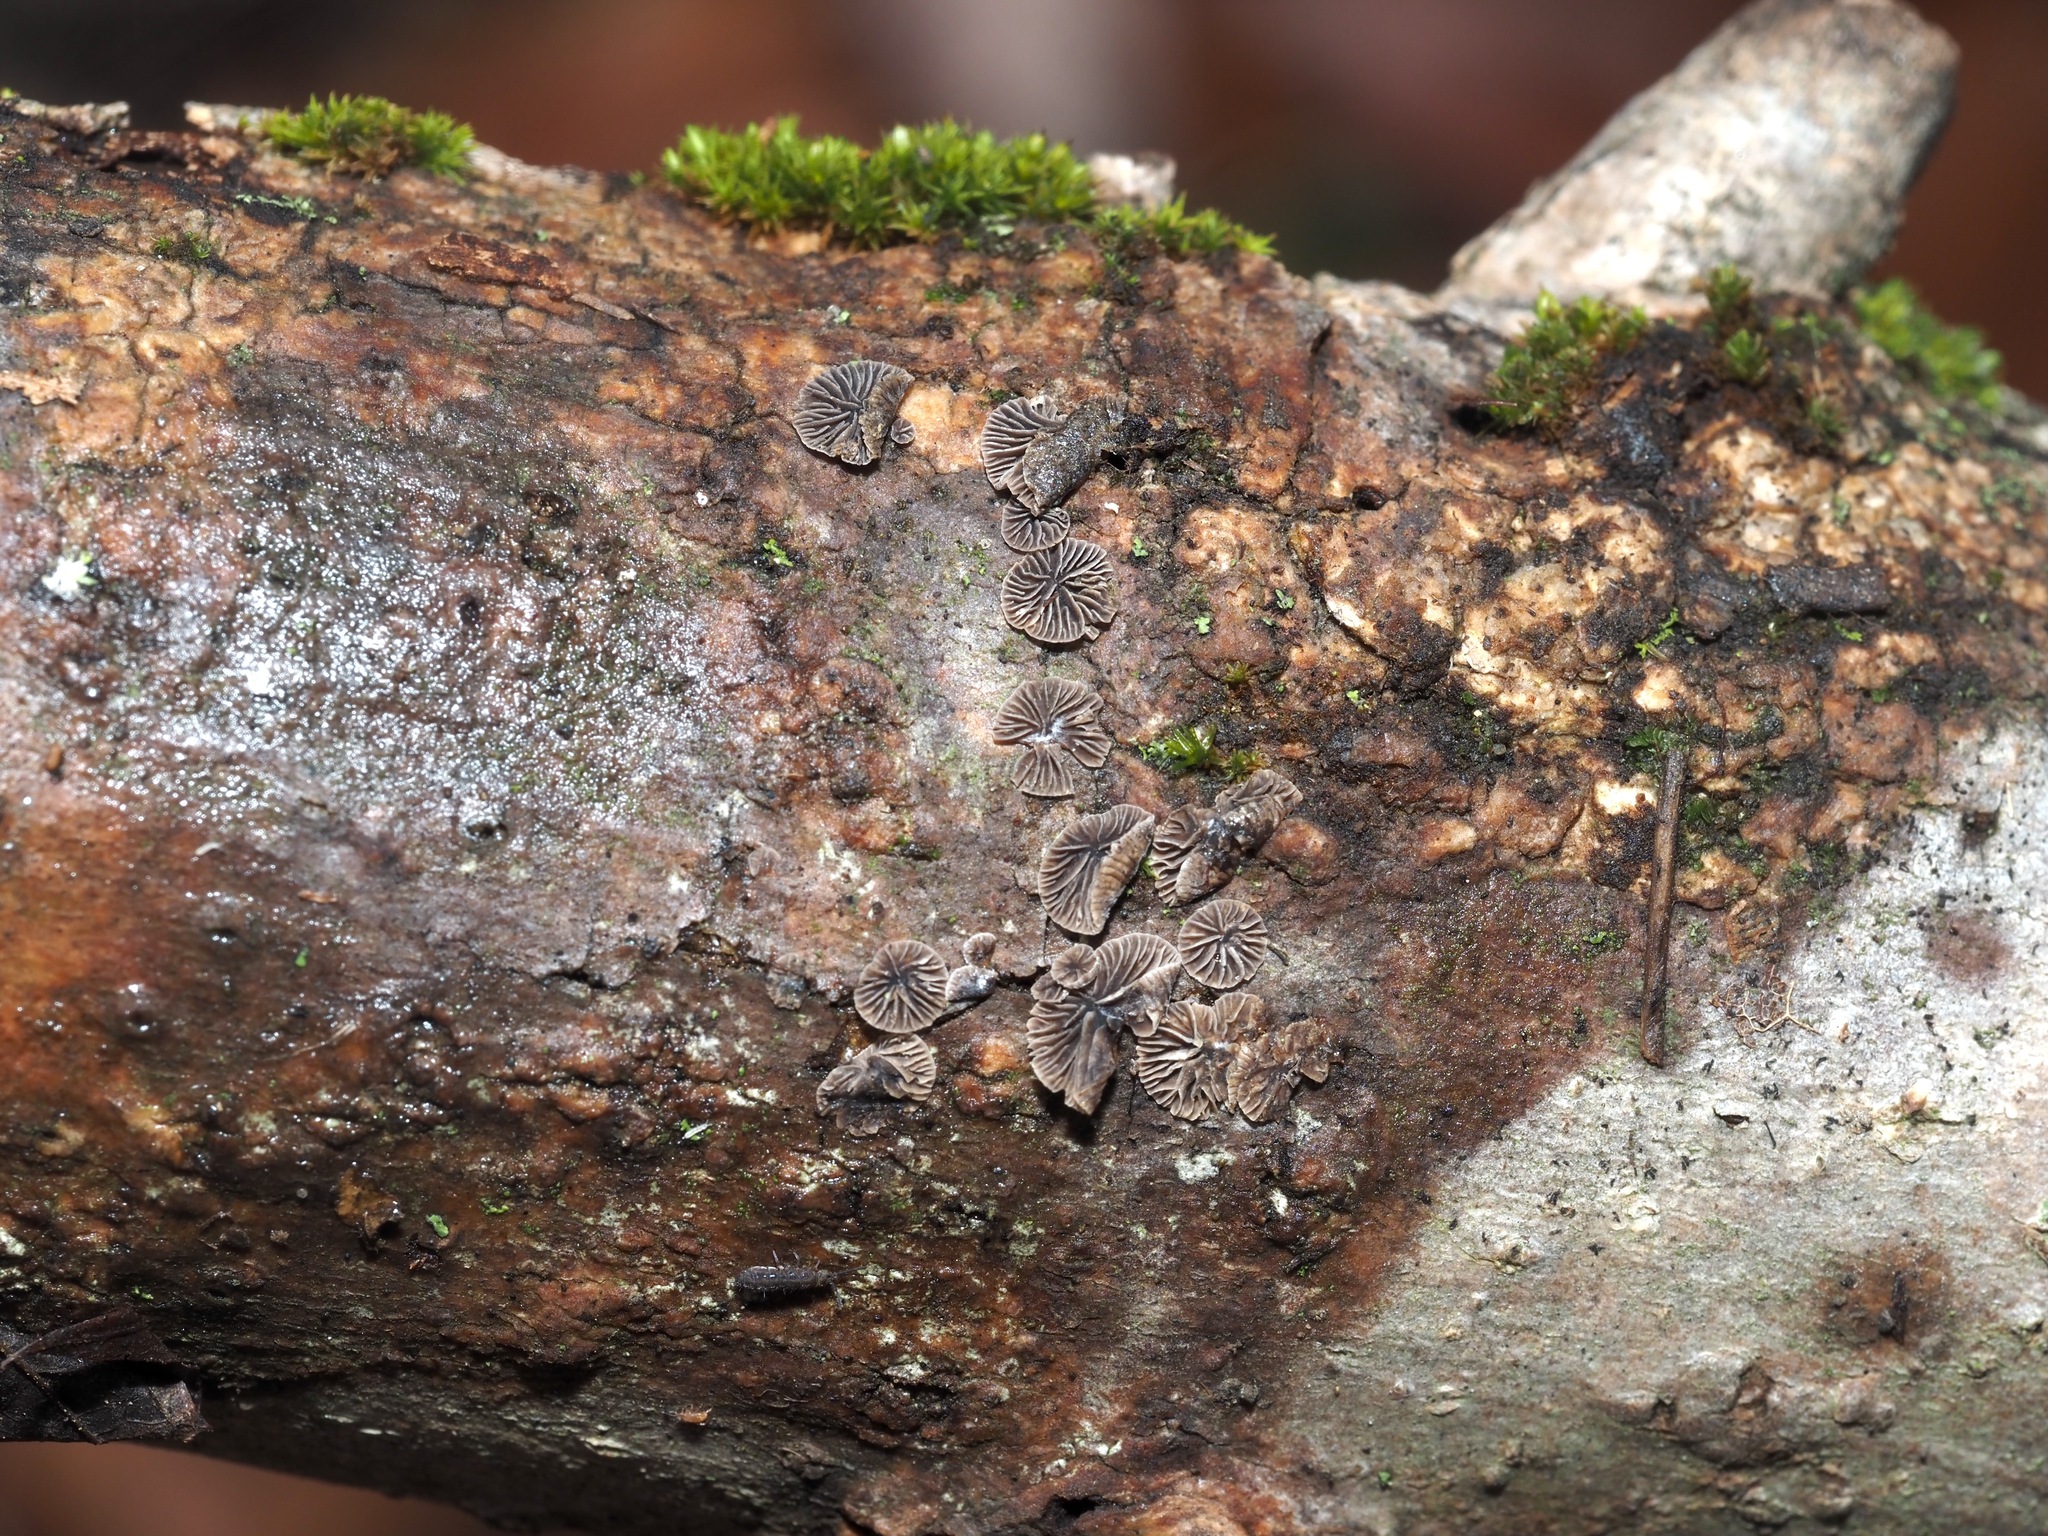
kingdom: Fungi
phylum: Basidiomycota
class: Agaricomycetes
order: Agaricales
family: Pleurotaceae
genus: Resupinatus
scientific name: Resupinatus applicatus
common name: Smoked oysterling
